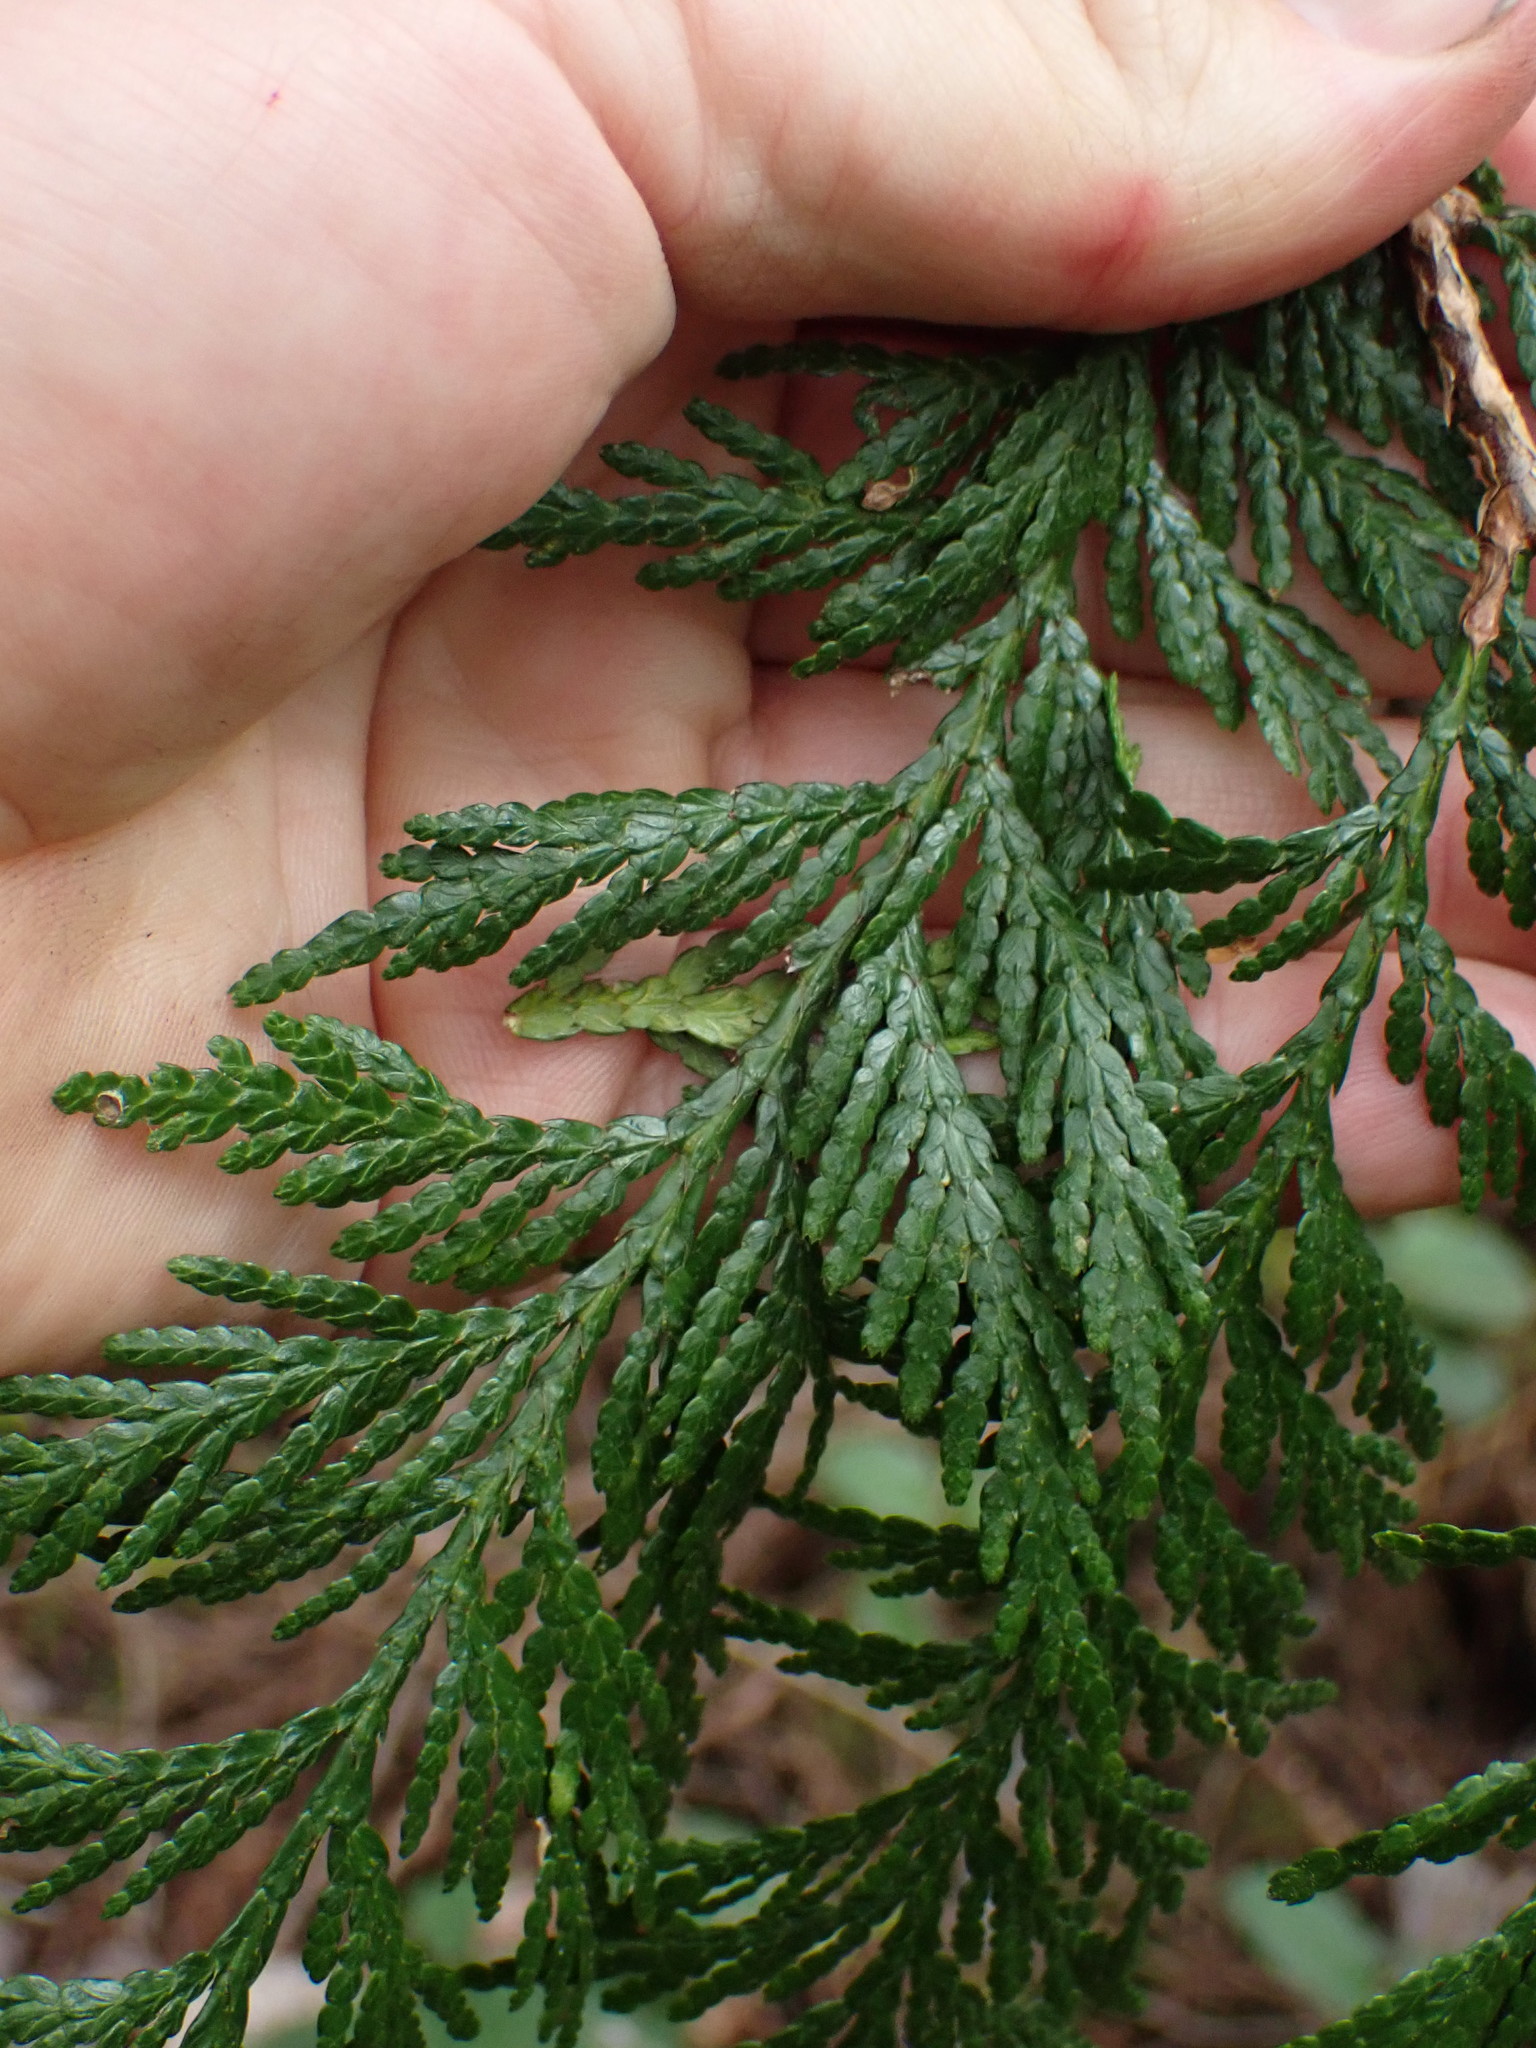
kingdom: Plantae
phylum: Tracheophyta
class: Pinopsida
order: Pinales
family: Cupressaceae
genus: Thuja
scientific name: Thuja plicata
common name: Western red-cedar
